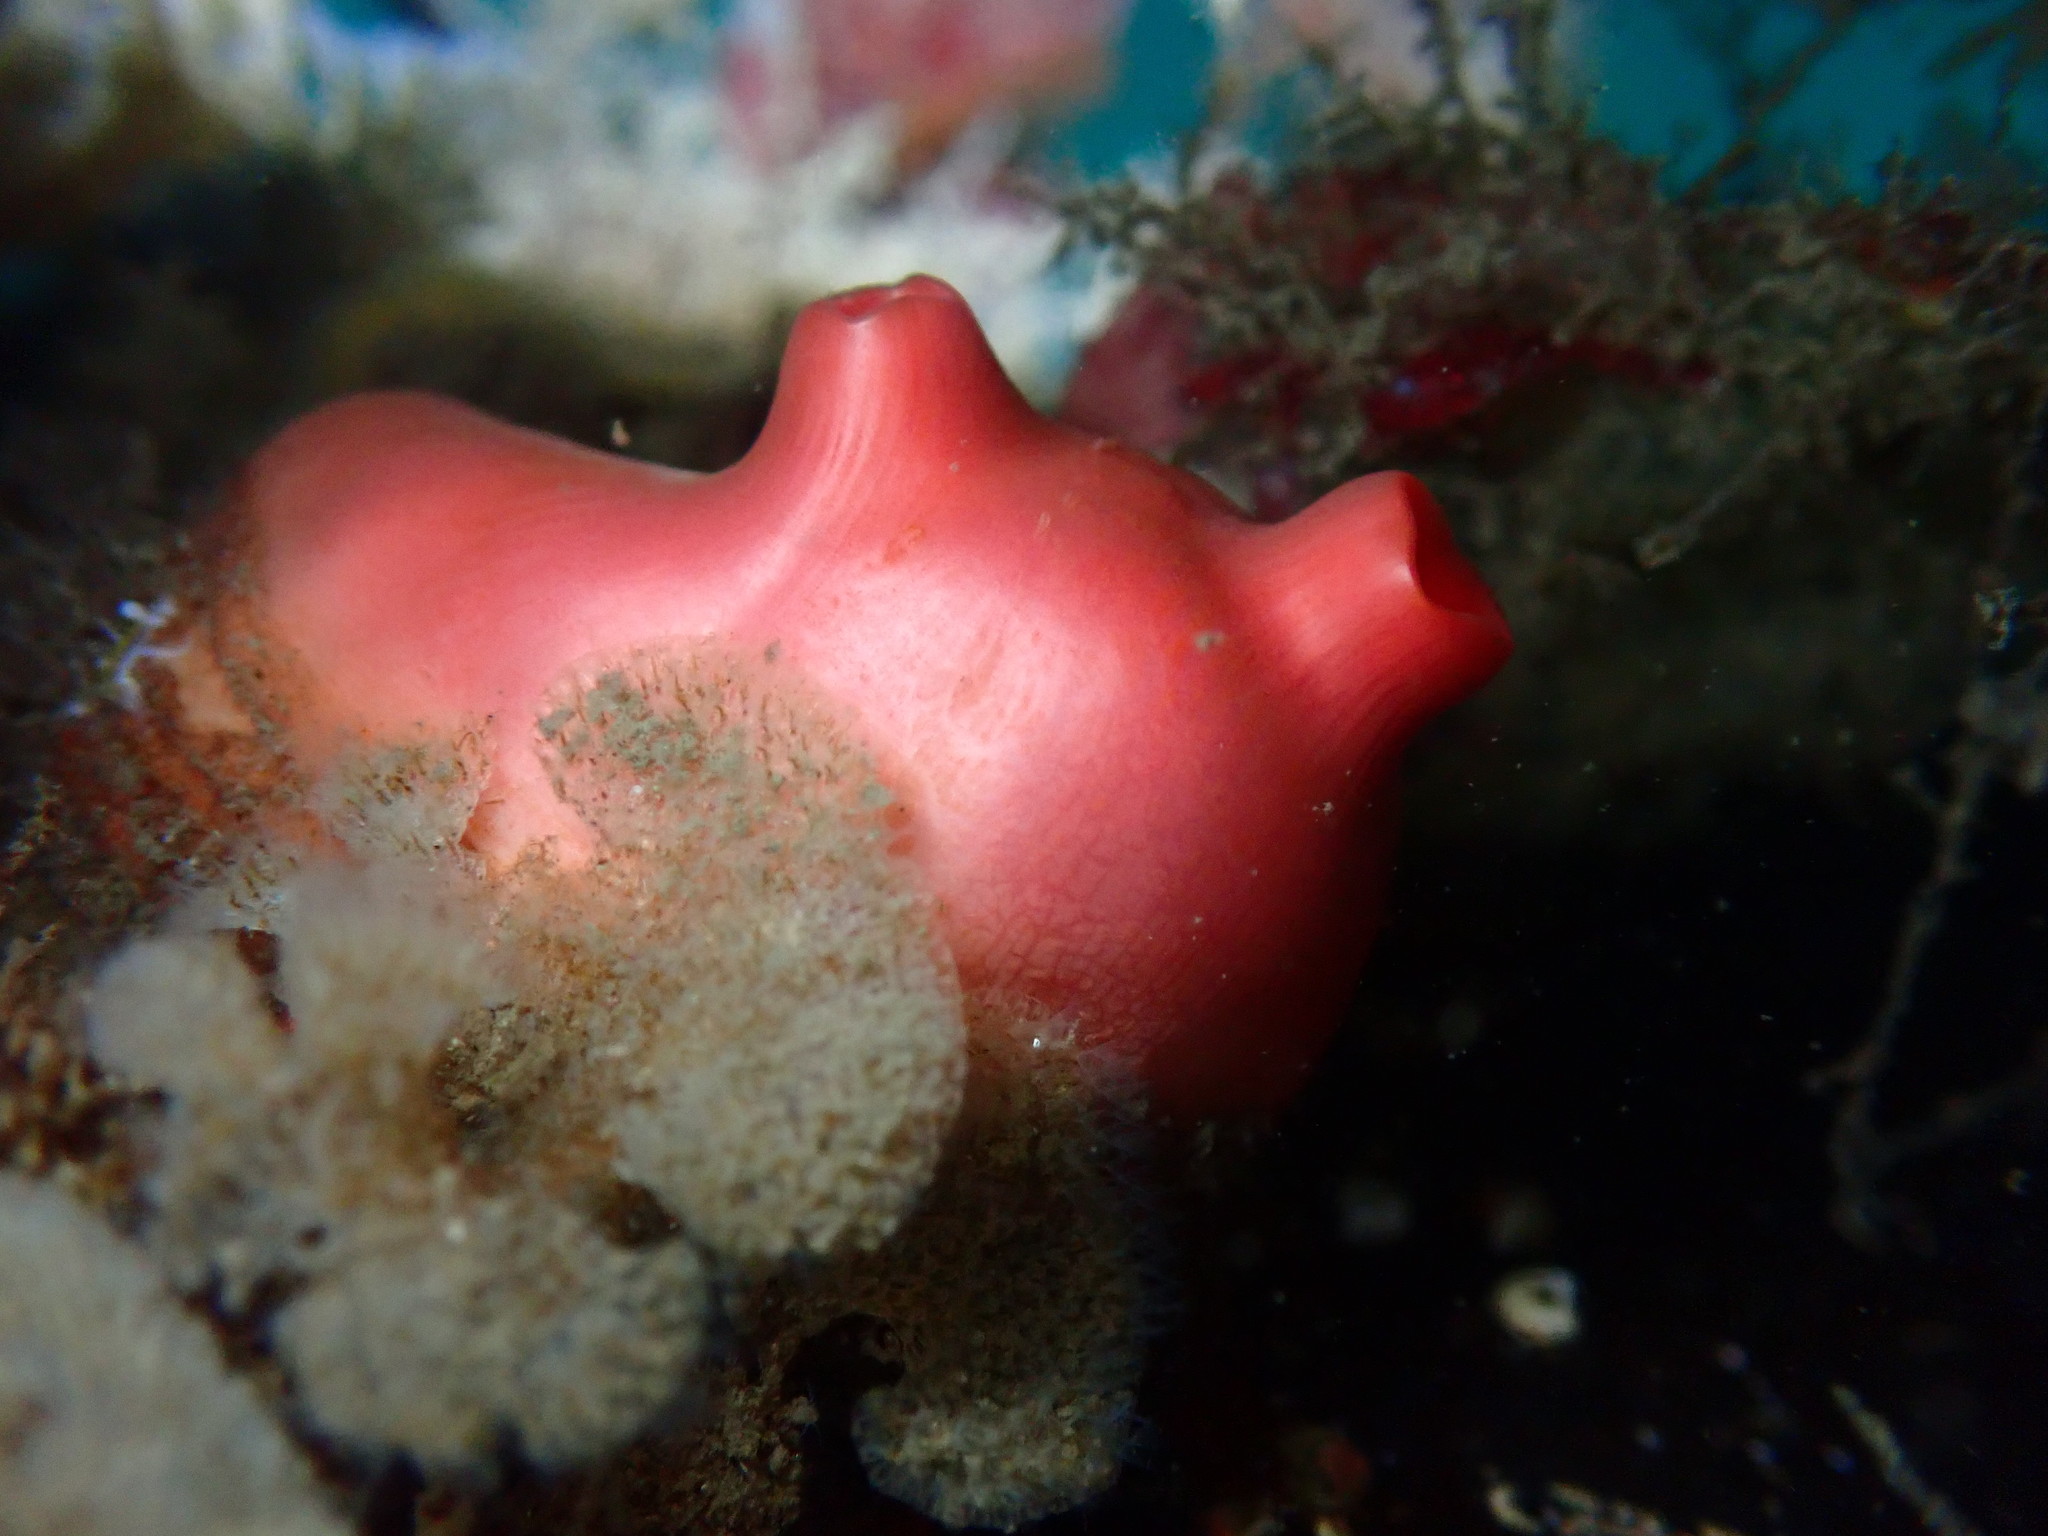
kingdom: Animalia
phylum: Chordata
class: Ascidiacea
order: Stolidobranchia
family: Styelidae
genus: Cnemidocarpa
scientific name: Cnemidocarpa finmarkiensis
